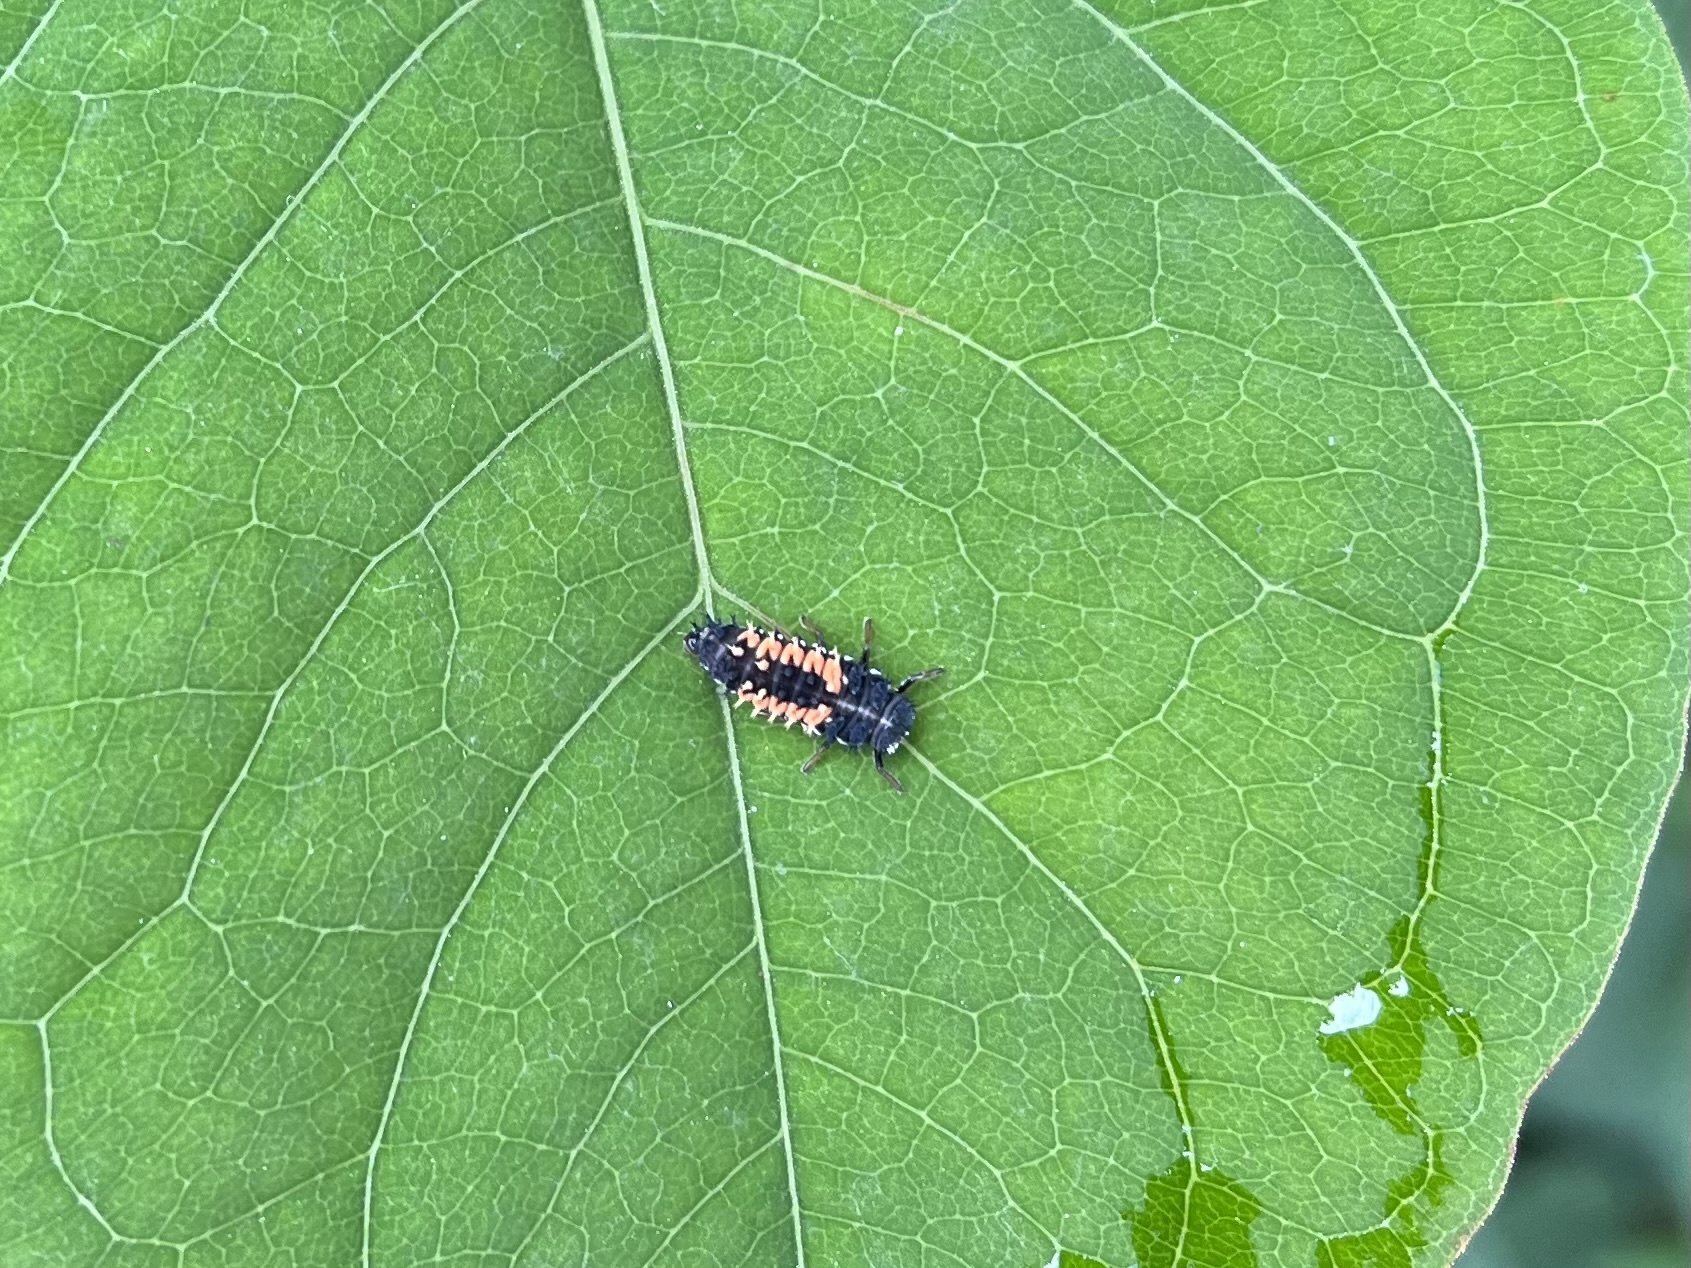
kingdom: Animalia
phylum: Arthropoda
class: Insecta
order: Coleoptera
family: Coccinellidae
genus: Harmonia
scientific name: Harmonia axyridis
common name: Harlequin ladybird
